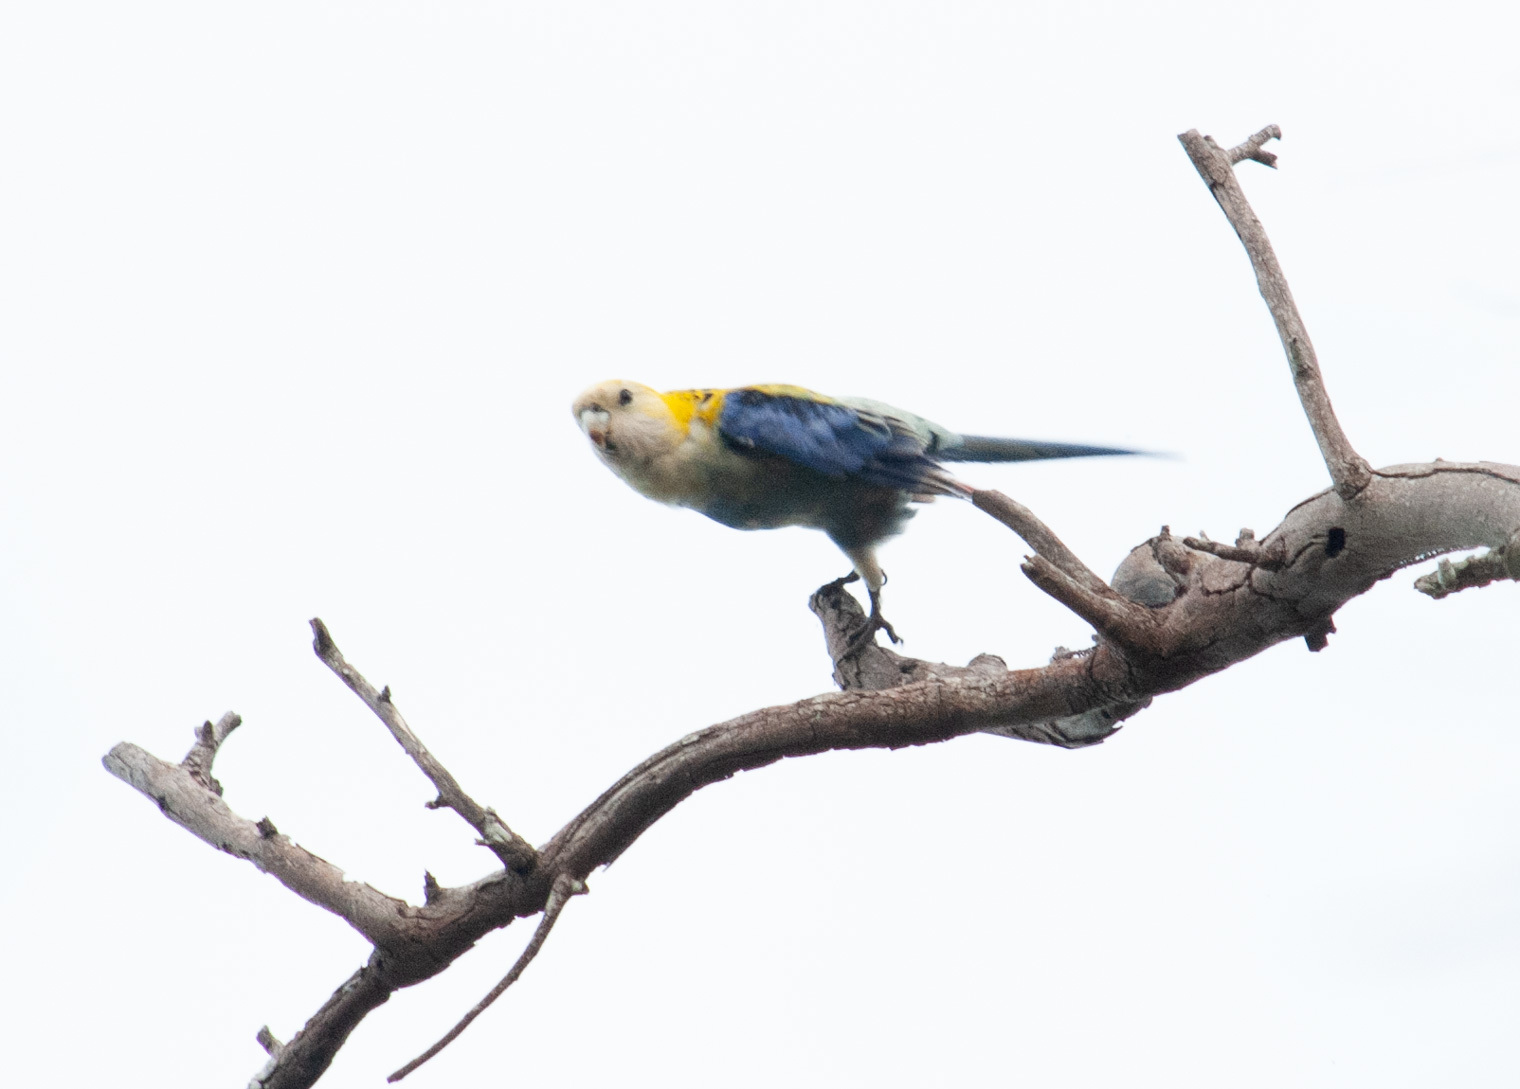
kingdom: Animalia
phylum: Chordata
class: Aves
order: Psittaciformes
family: Psittacidae
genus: Platycercus
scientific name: Platycercus adscitus
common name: Pale-headed rosella
